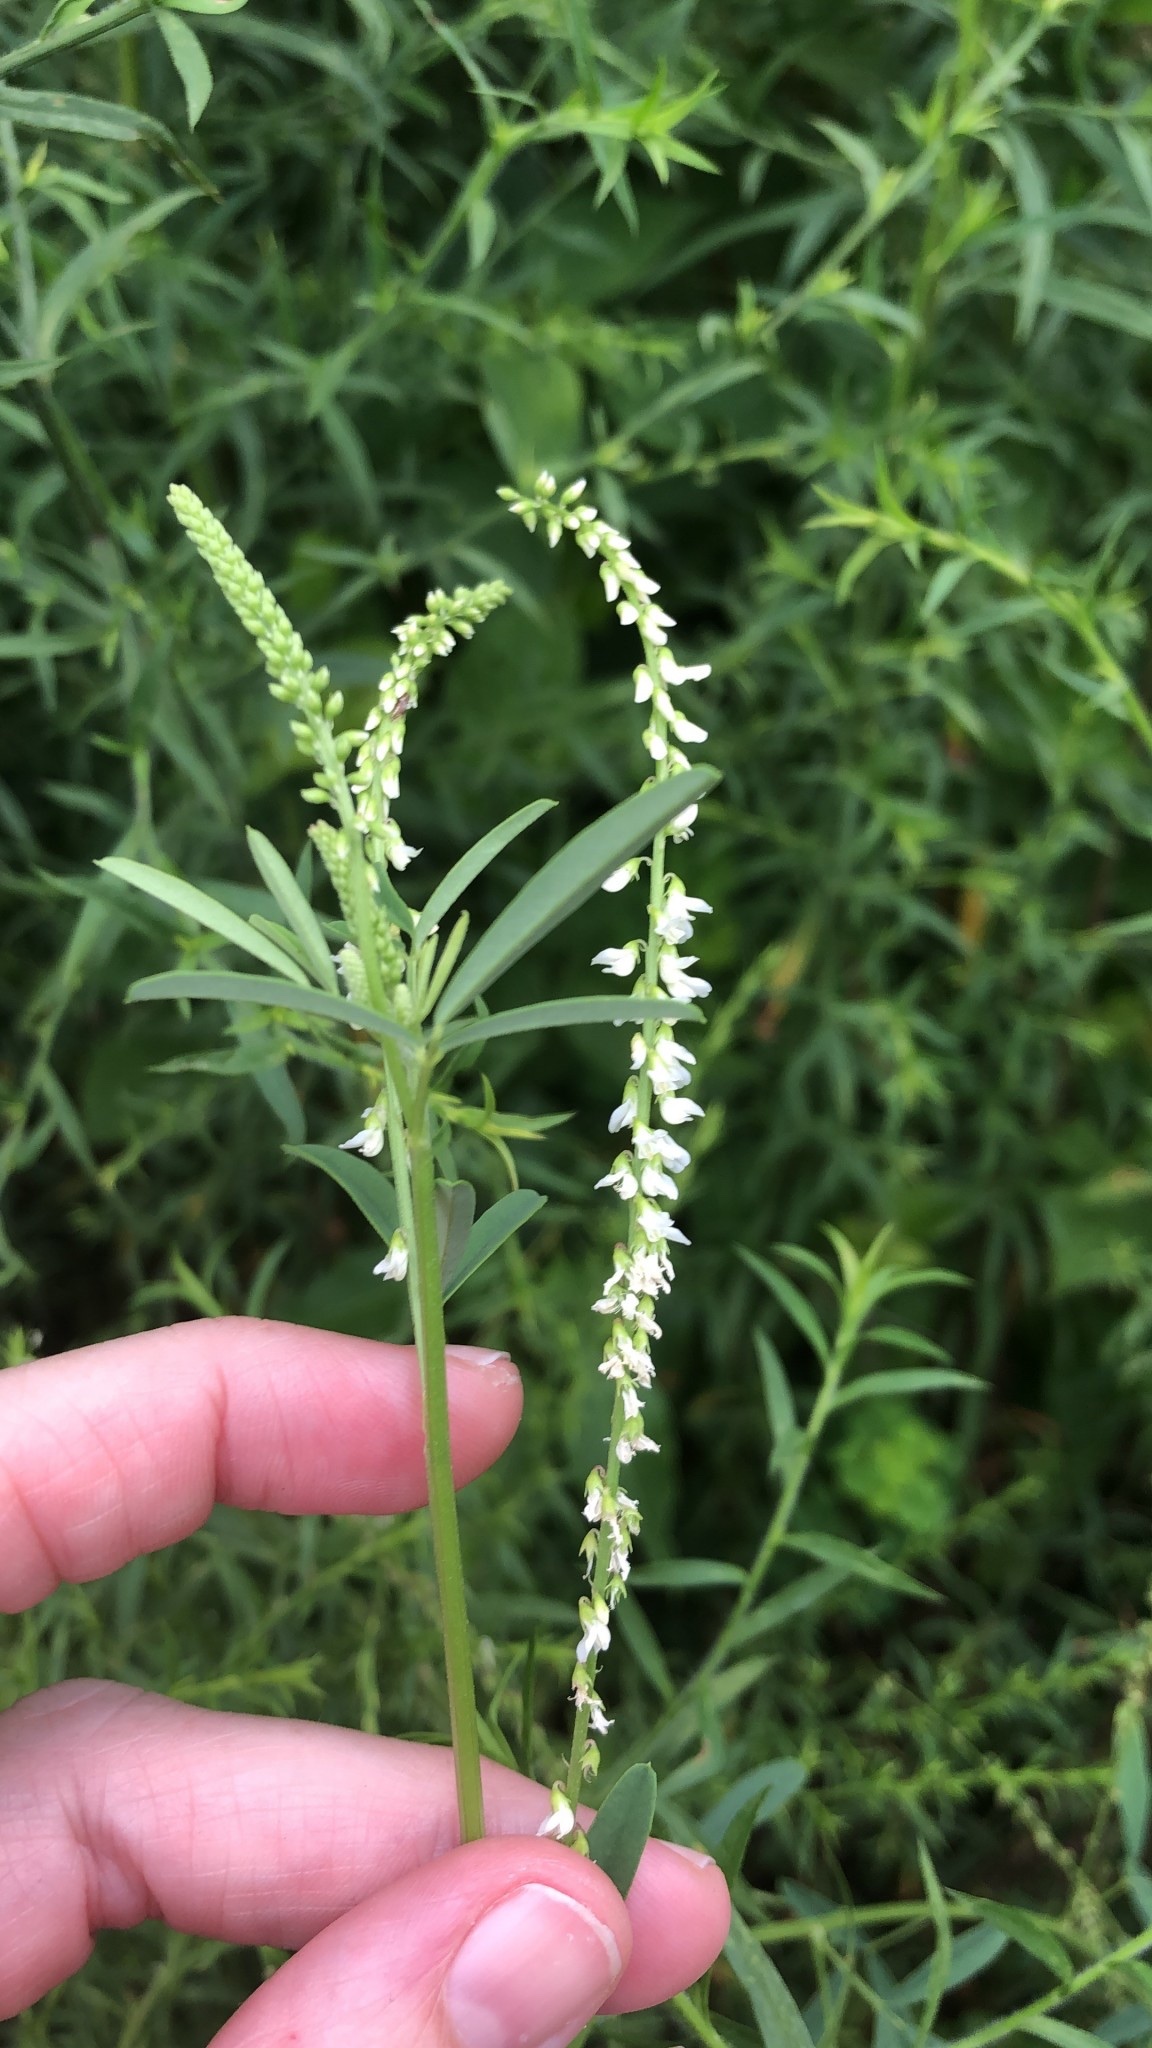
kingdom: Plantae
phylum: Tracheophyta
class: Magnoliopsida
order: Fabales
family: Fabaceae
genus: Melilotus
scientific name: Melilotus albus
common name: White melilot
